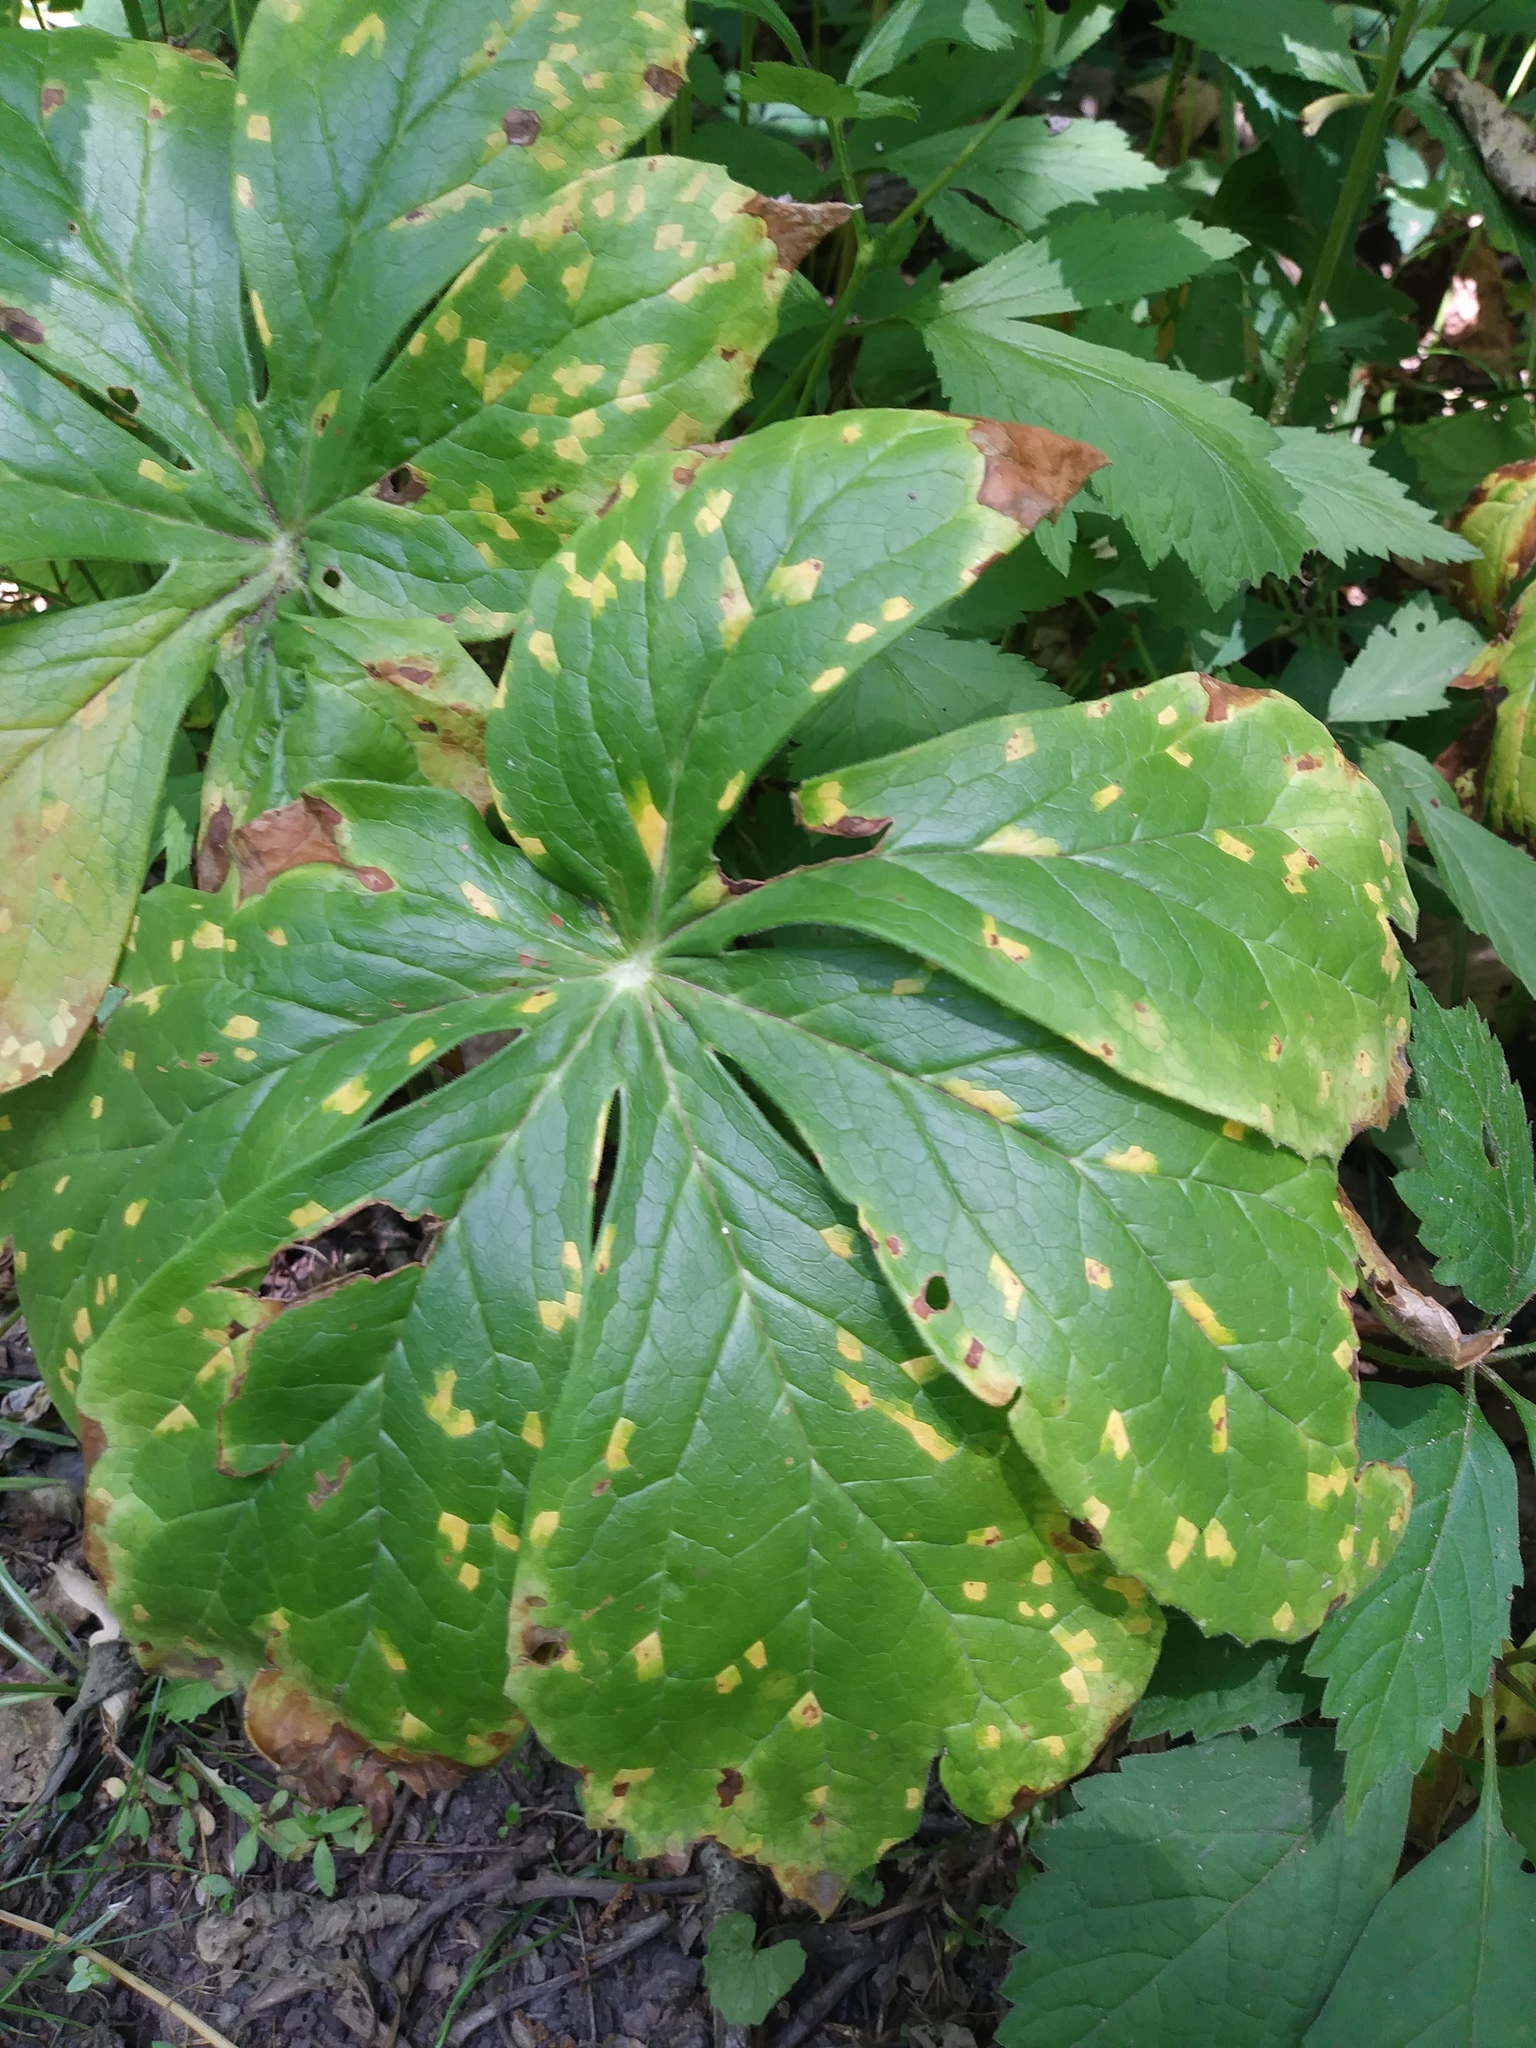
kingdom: Fungi
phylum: Basidiomycota
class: Pucciniomycetes
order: Pucciniales
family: Pucciniaceae
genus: Puccinia
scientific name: Puccinia podophylli
